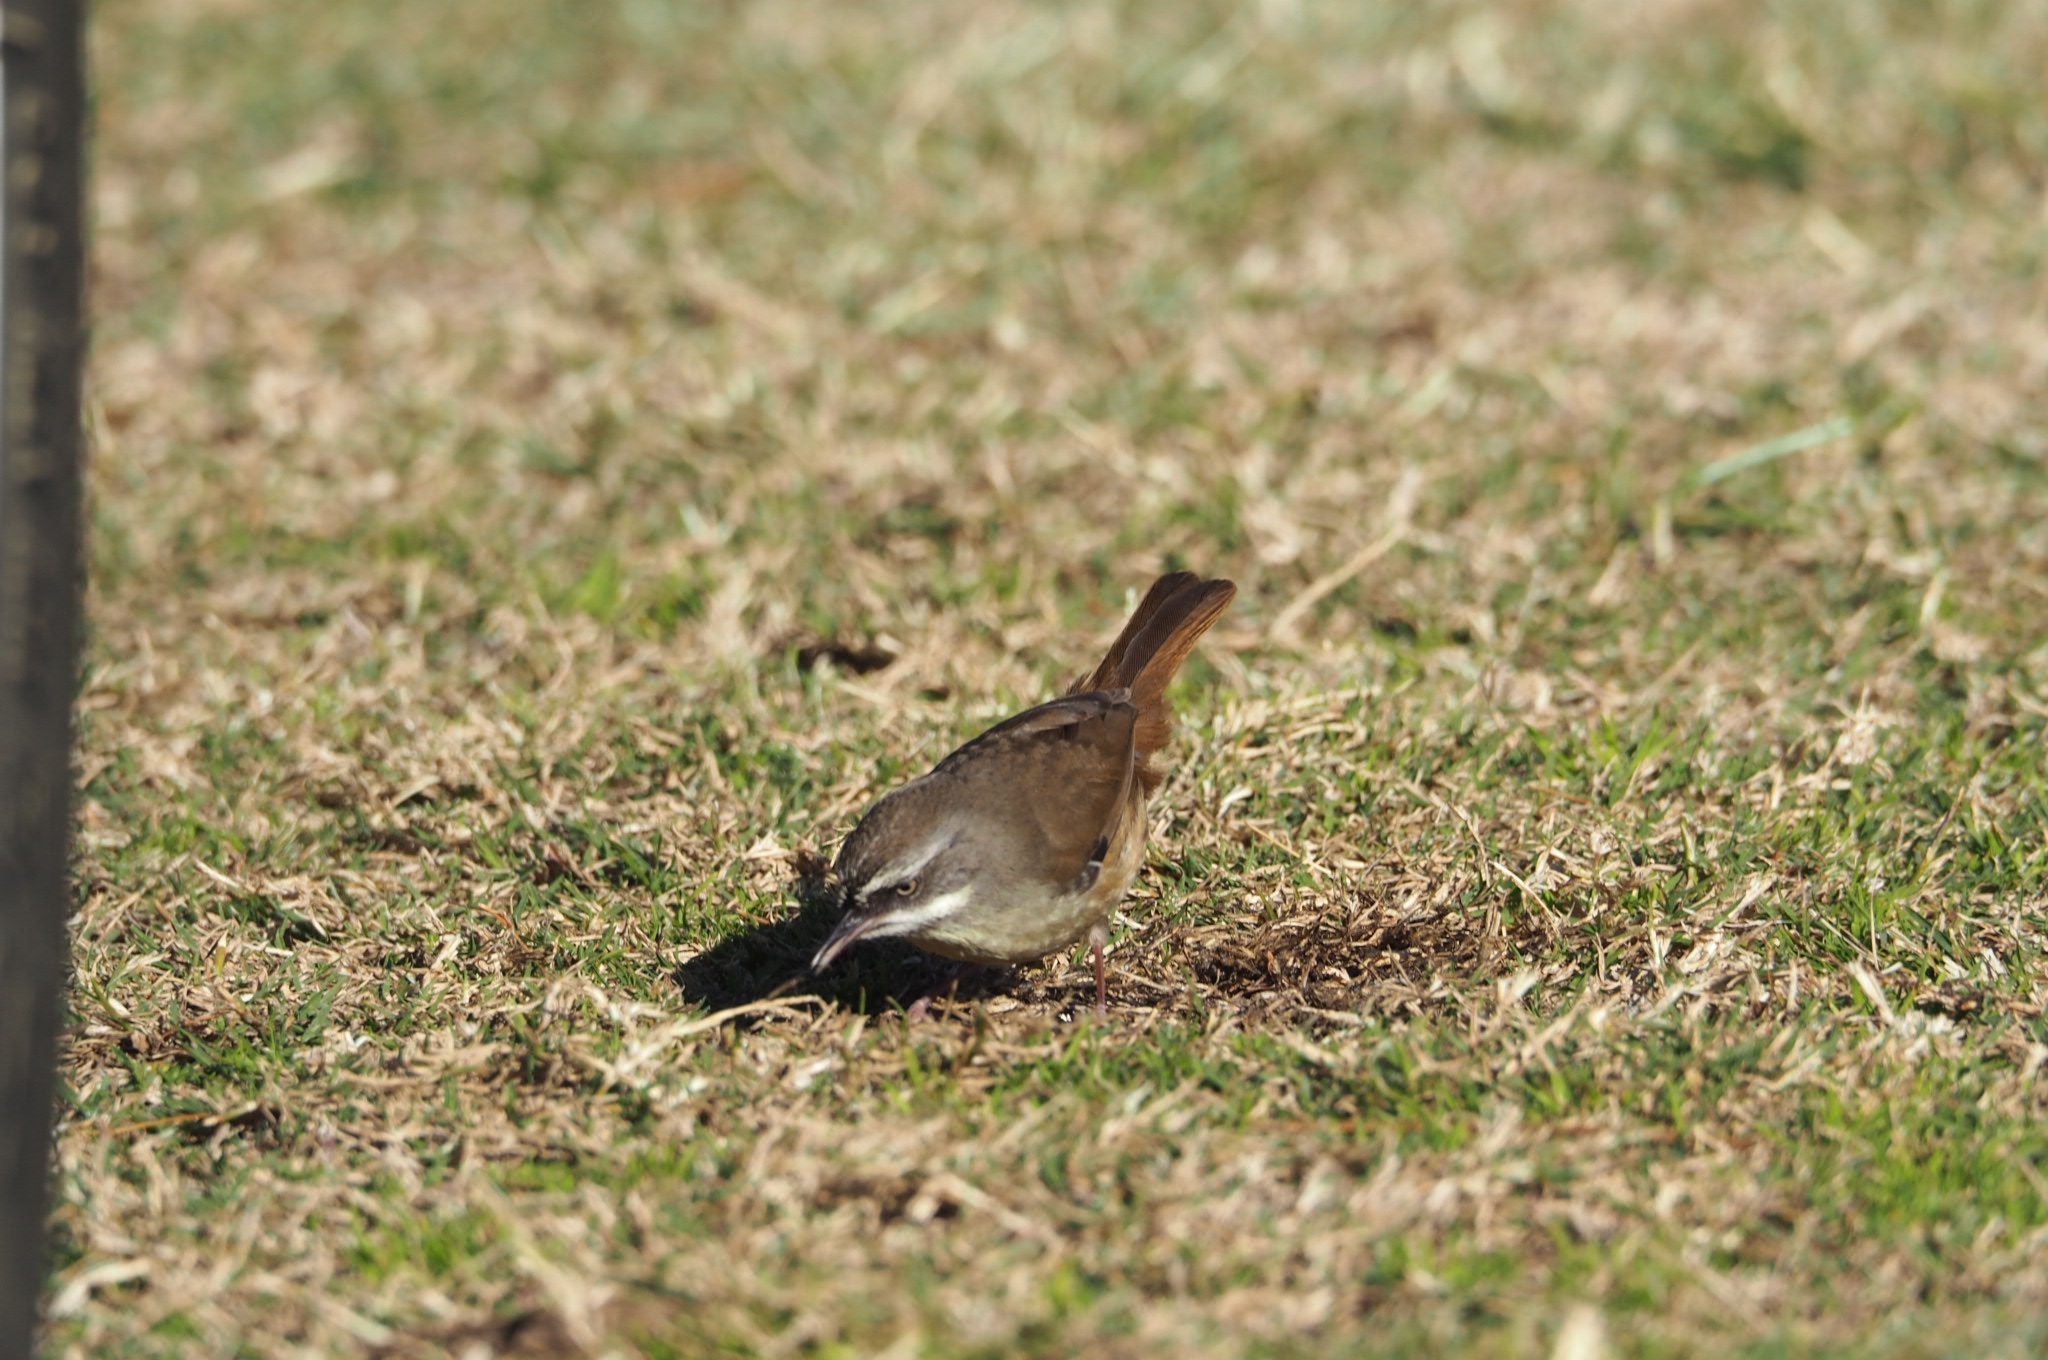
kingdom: Animalia
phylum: Chordata
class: Aves
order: Passeriformes
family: Acanthizidae
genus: Sericornis
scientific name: Sericornis frontalis
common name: White-browed scrubwren
